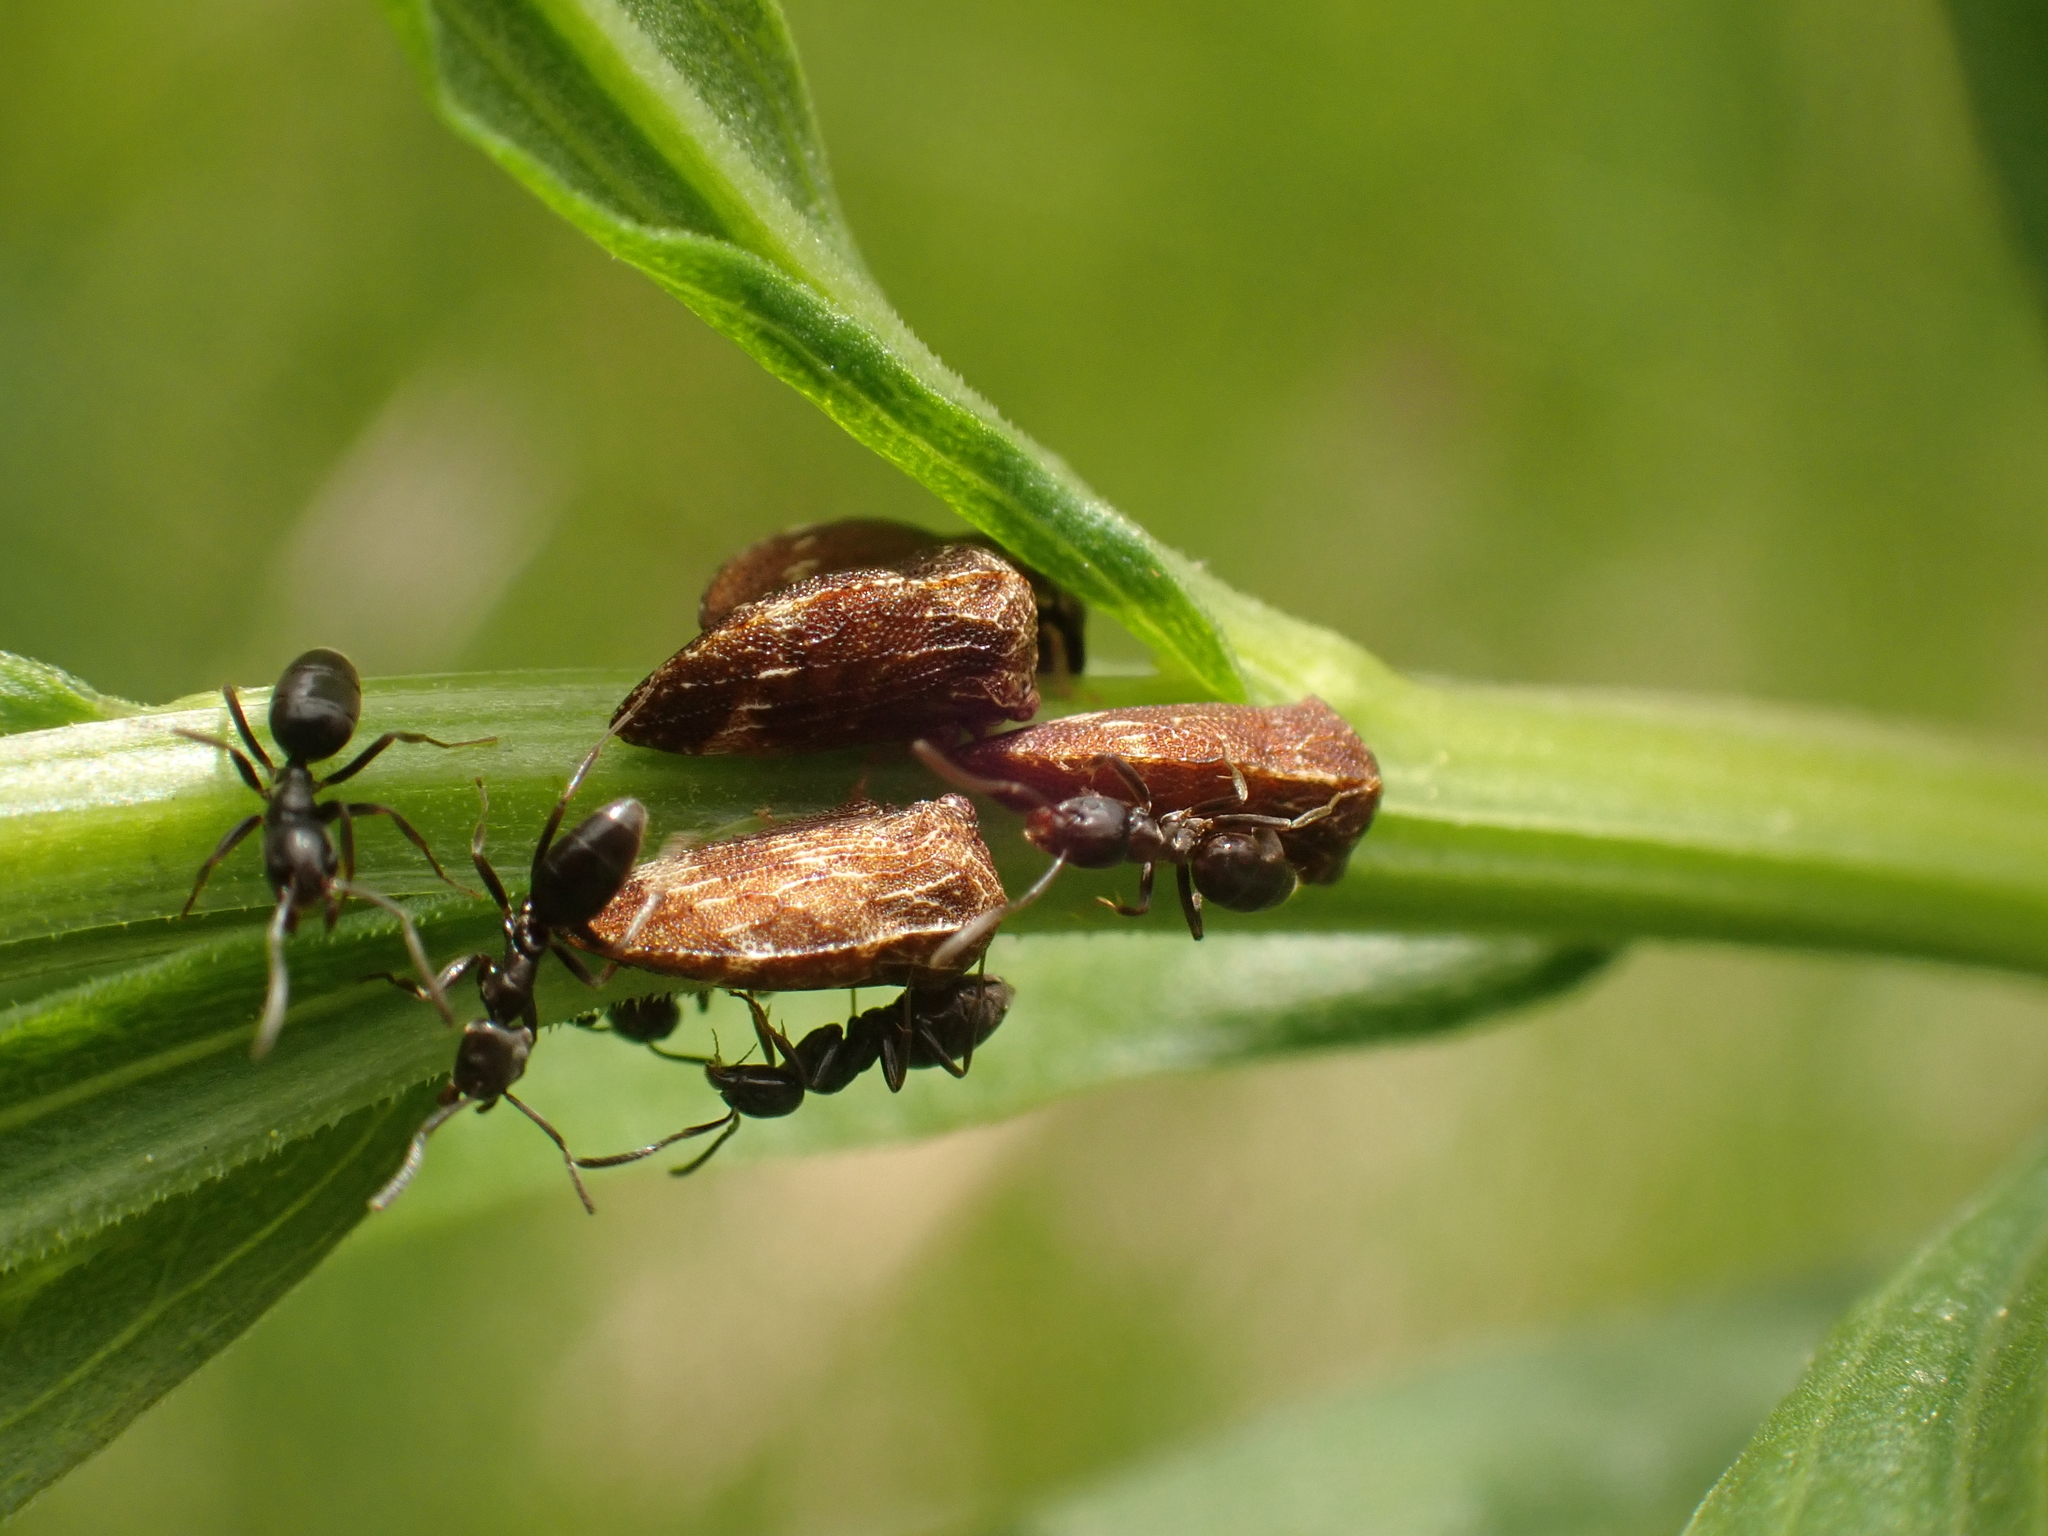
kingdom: Animalia
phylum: Arthropoda
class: Insecta
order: Hemiptera
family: Membracidae
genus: Publilia
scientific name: Publilia concava
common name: Aster treehopper
